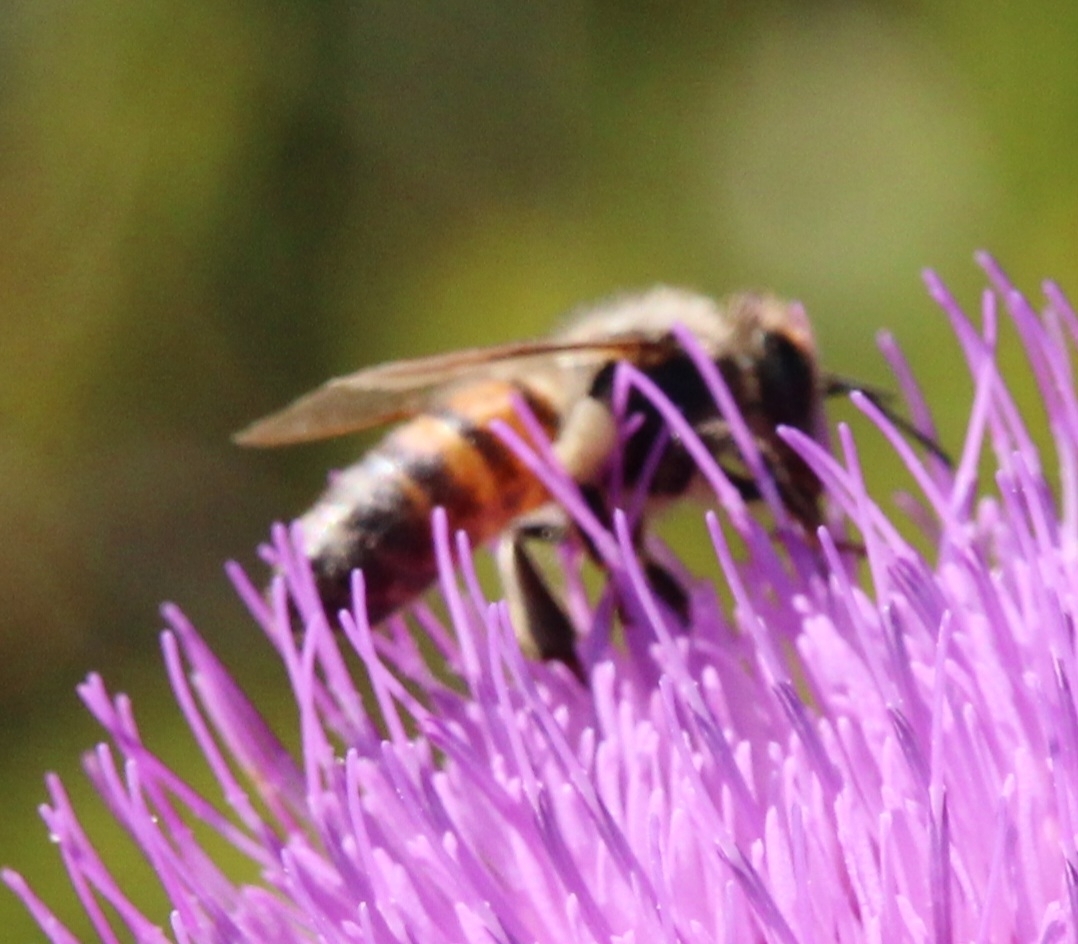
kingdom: Animalia
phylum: Arthropoda
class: Insecta
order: Hymenoptera
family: Apidae
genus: Apis
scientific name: Apis mellifera
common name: Honey bee
